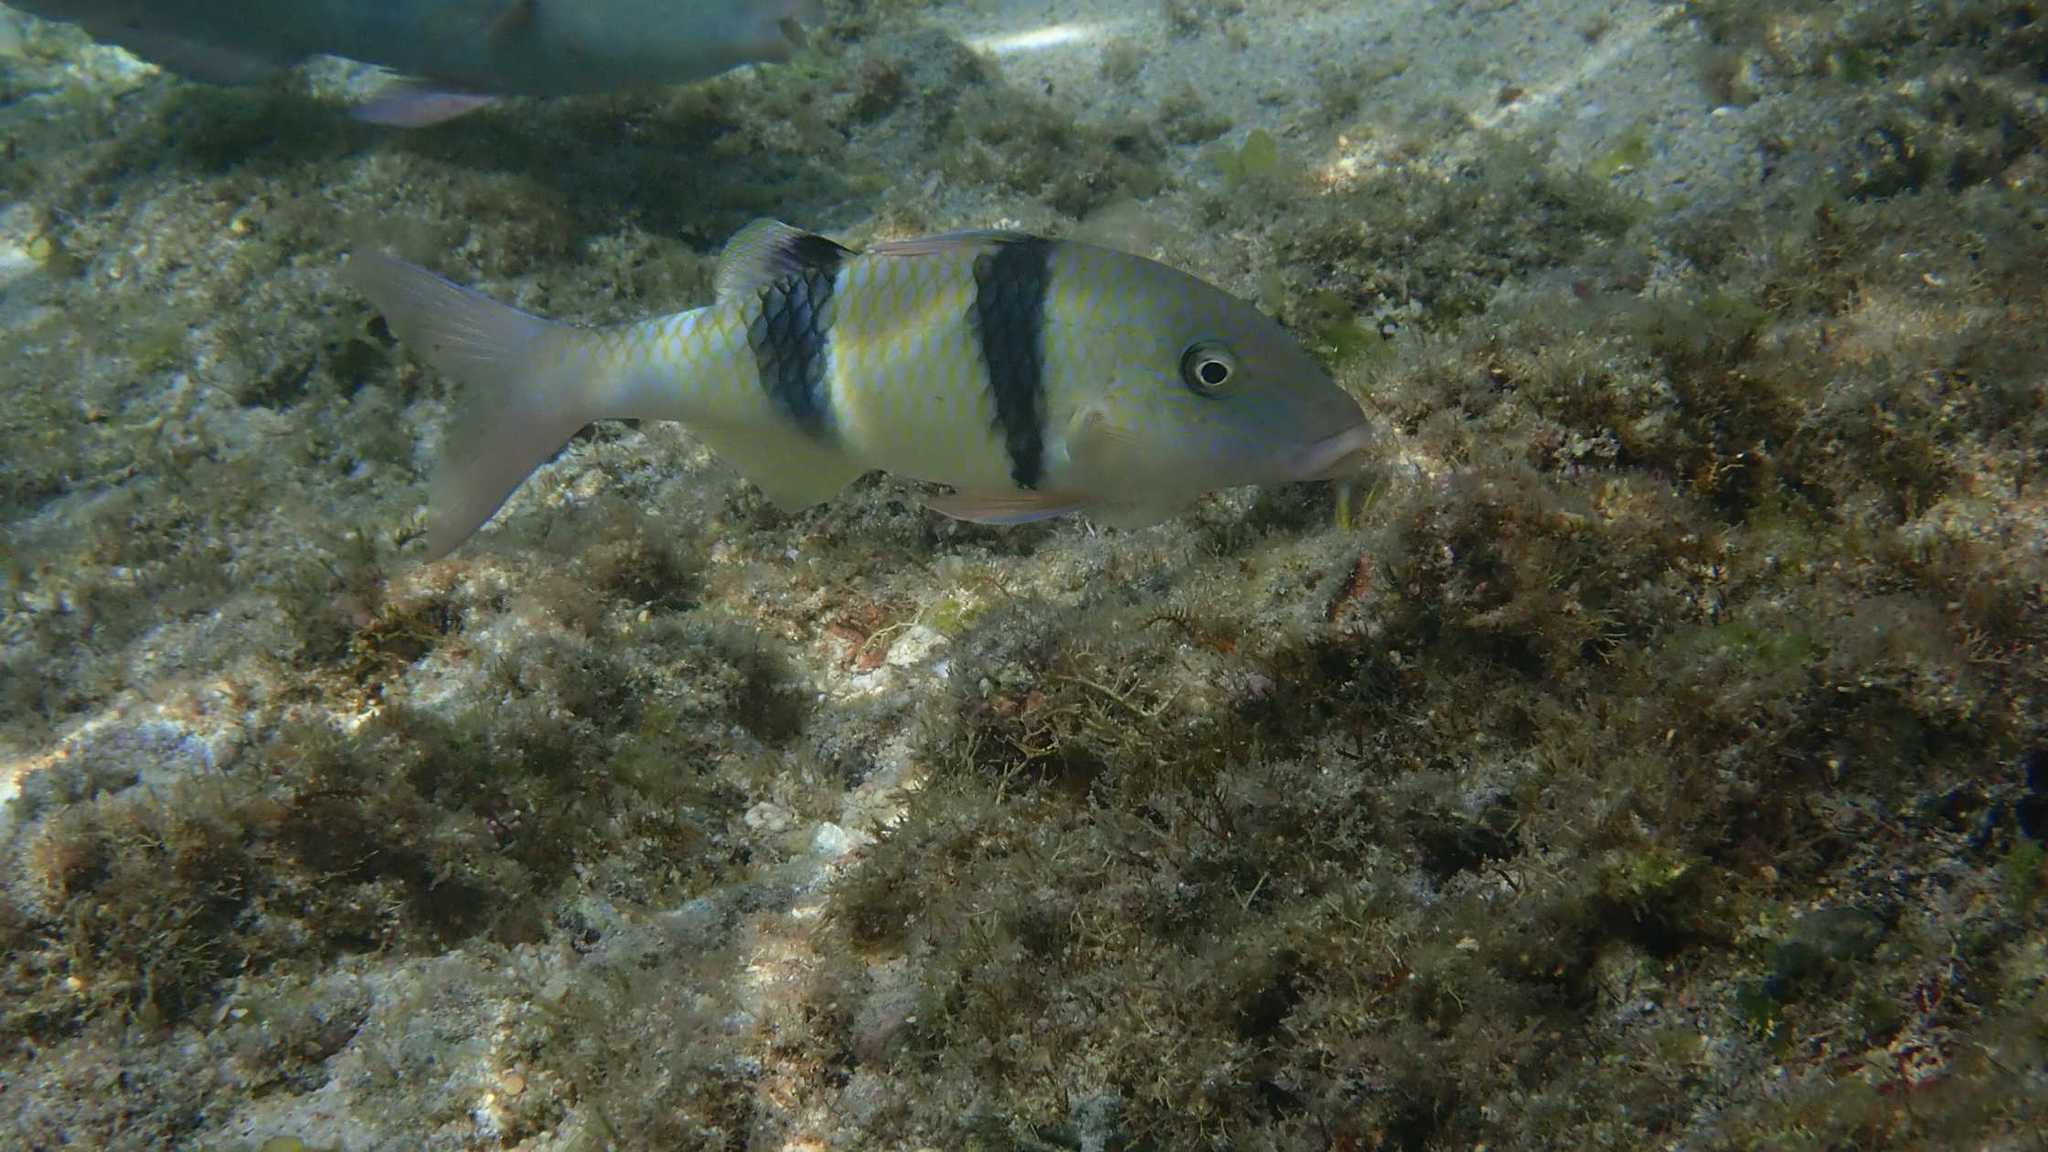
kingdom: Animalia
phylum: Chordata
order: Perciformes
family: Mullidae
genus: Parupeneus
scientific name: Parupeneus trifasciatus
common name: Doublebar goatfish
